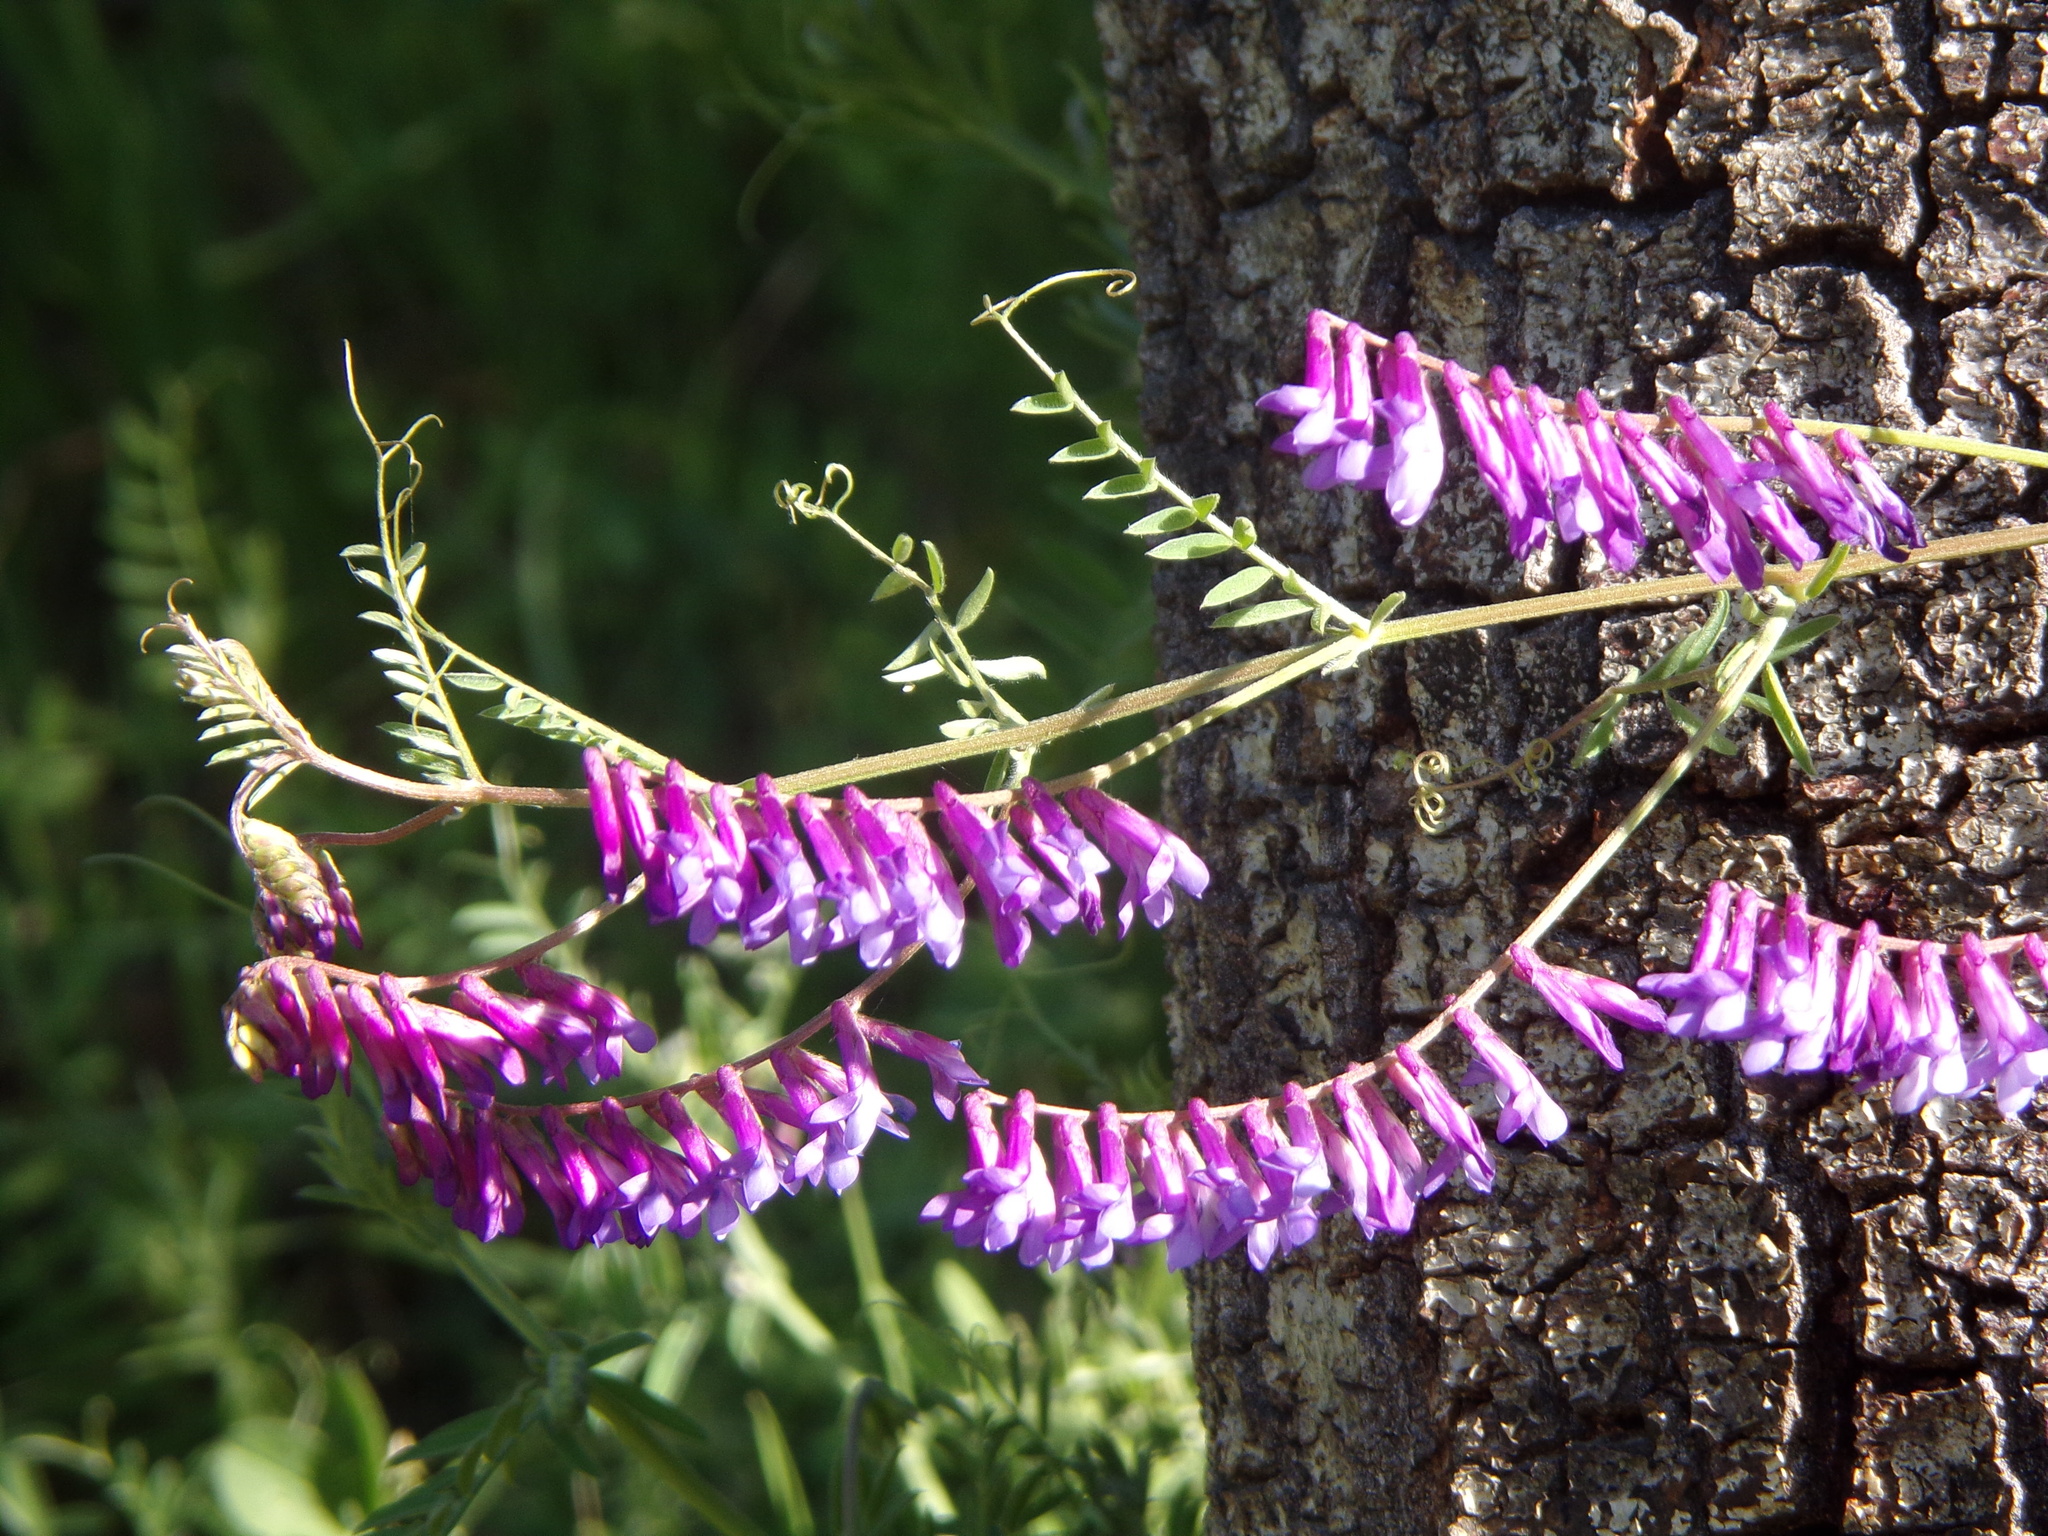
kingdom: Plantae
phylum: Tracheophyta
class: Magnoliopsida
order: Fabales
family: Fabaceae
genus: Vicia
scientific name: Vicia villosa
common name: Fodder vetch
